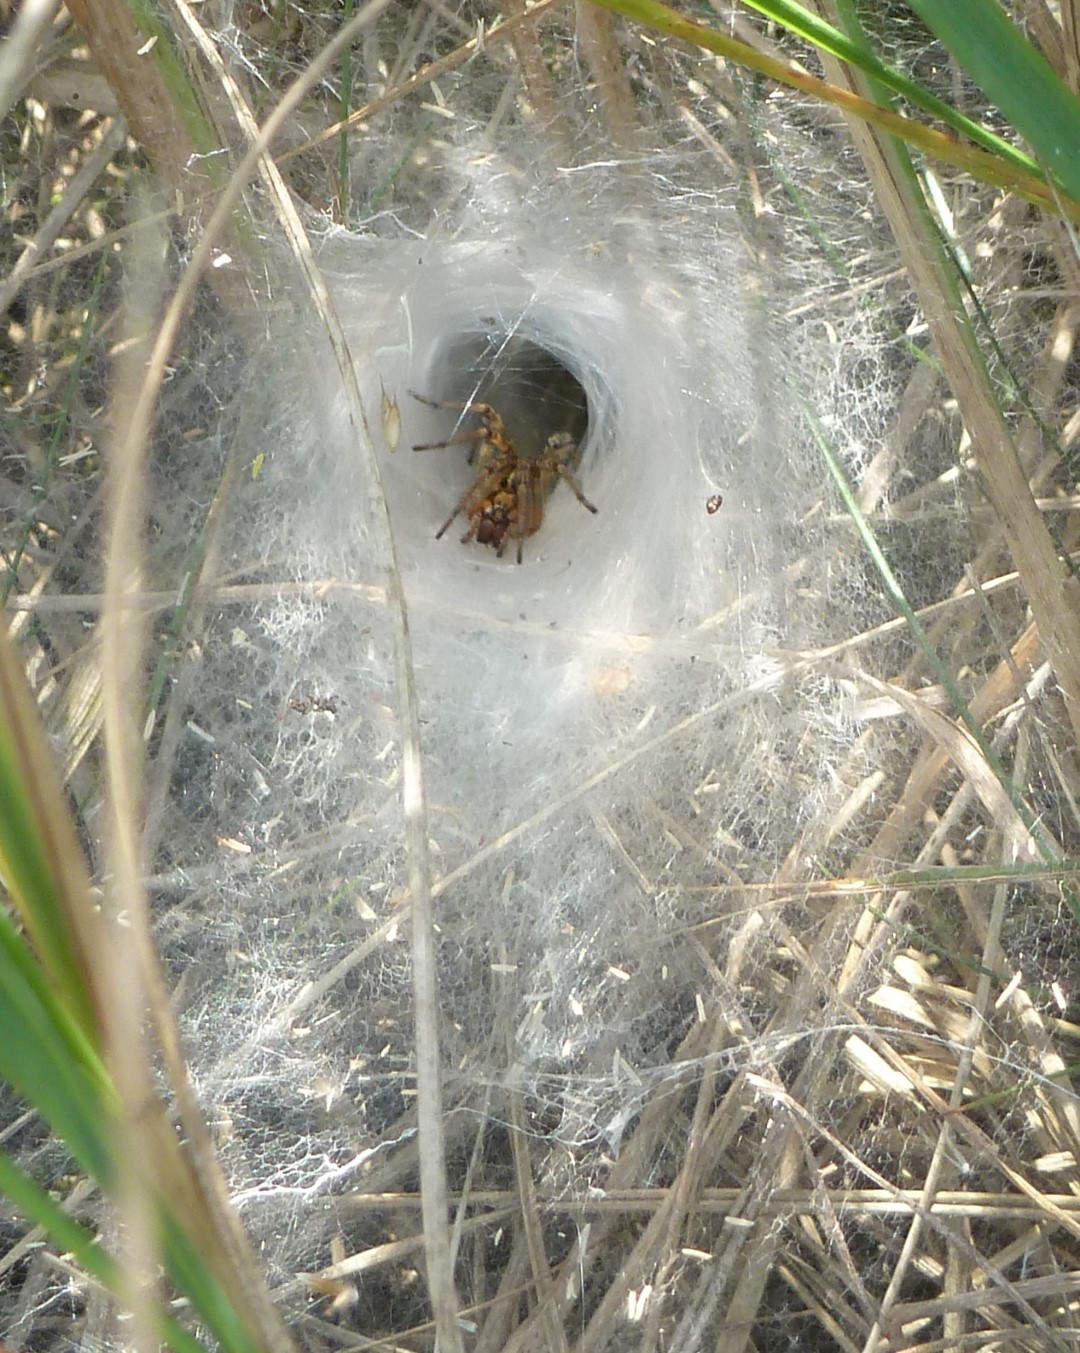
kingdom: Animalia
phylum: Arthropoda
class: Arachnida
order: Araneae
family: Agelenidae
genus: Agelena
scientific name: Agelena labyrinthica
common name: Labyrinth spider
